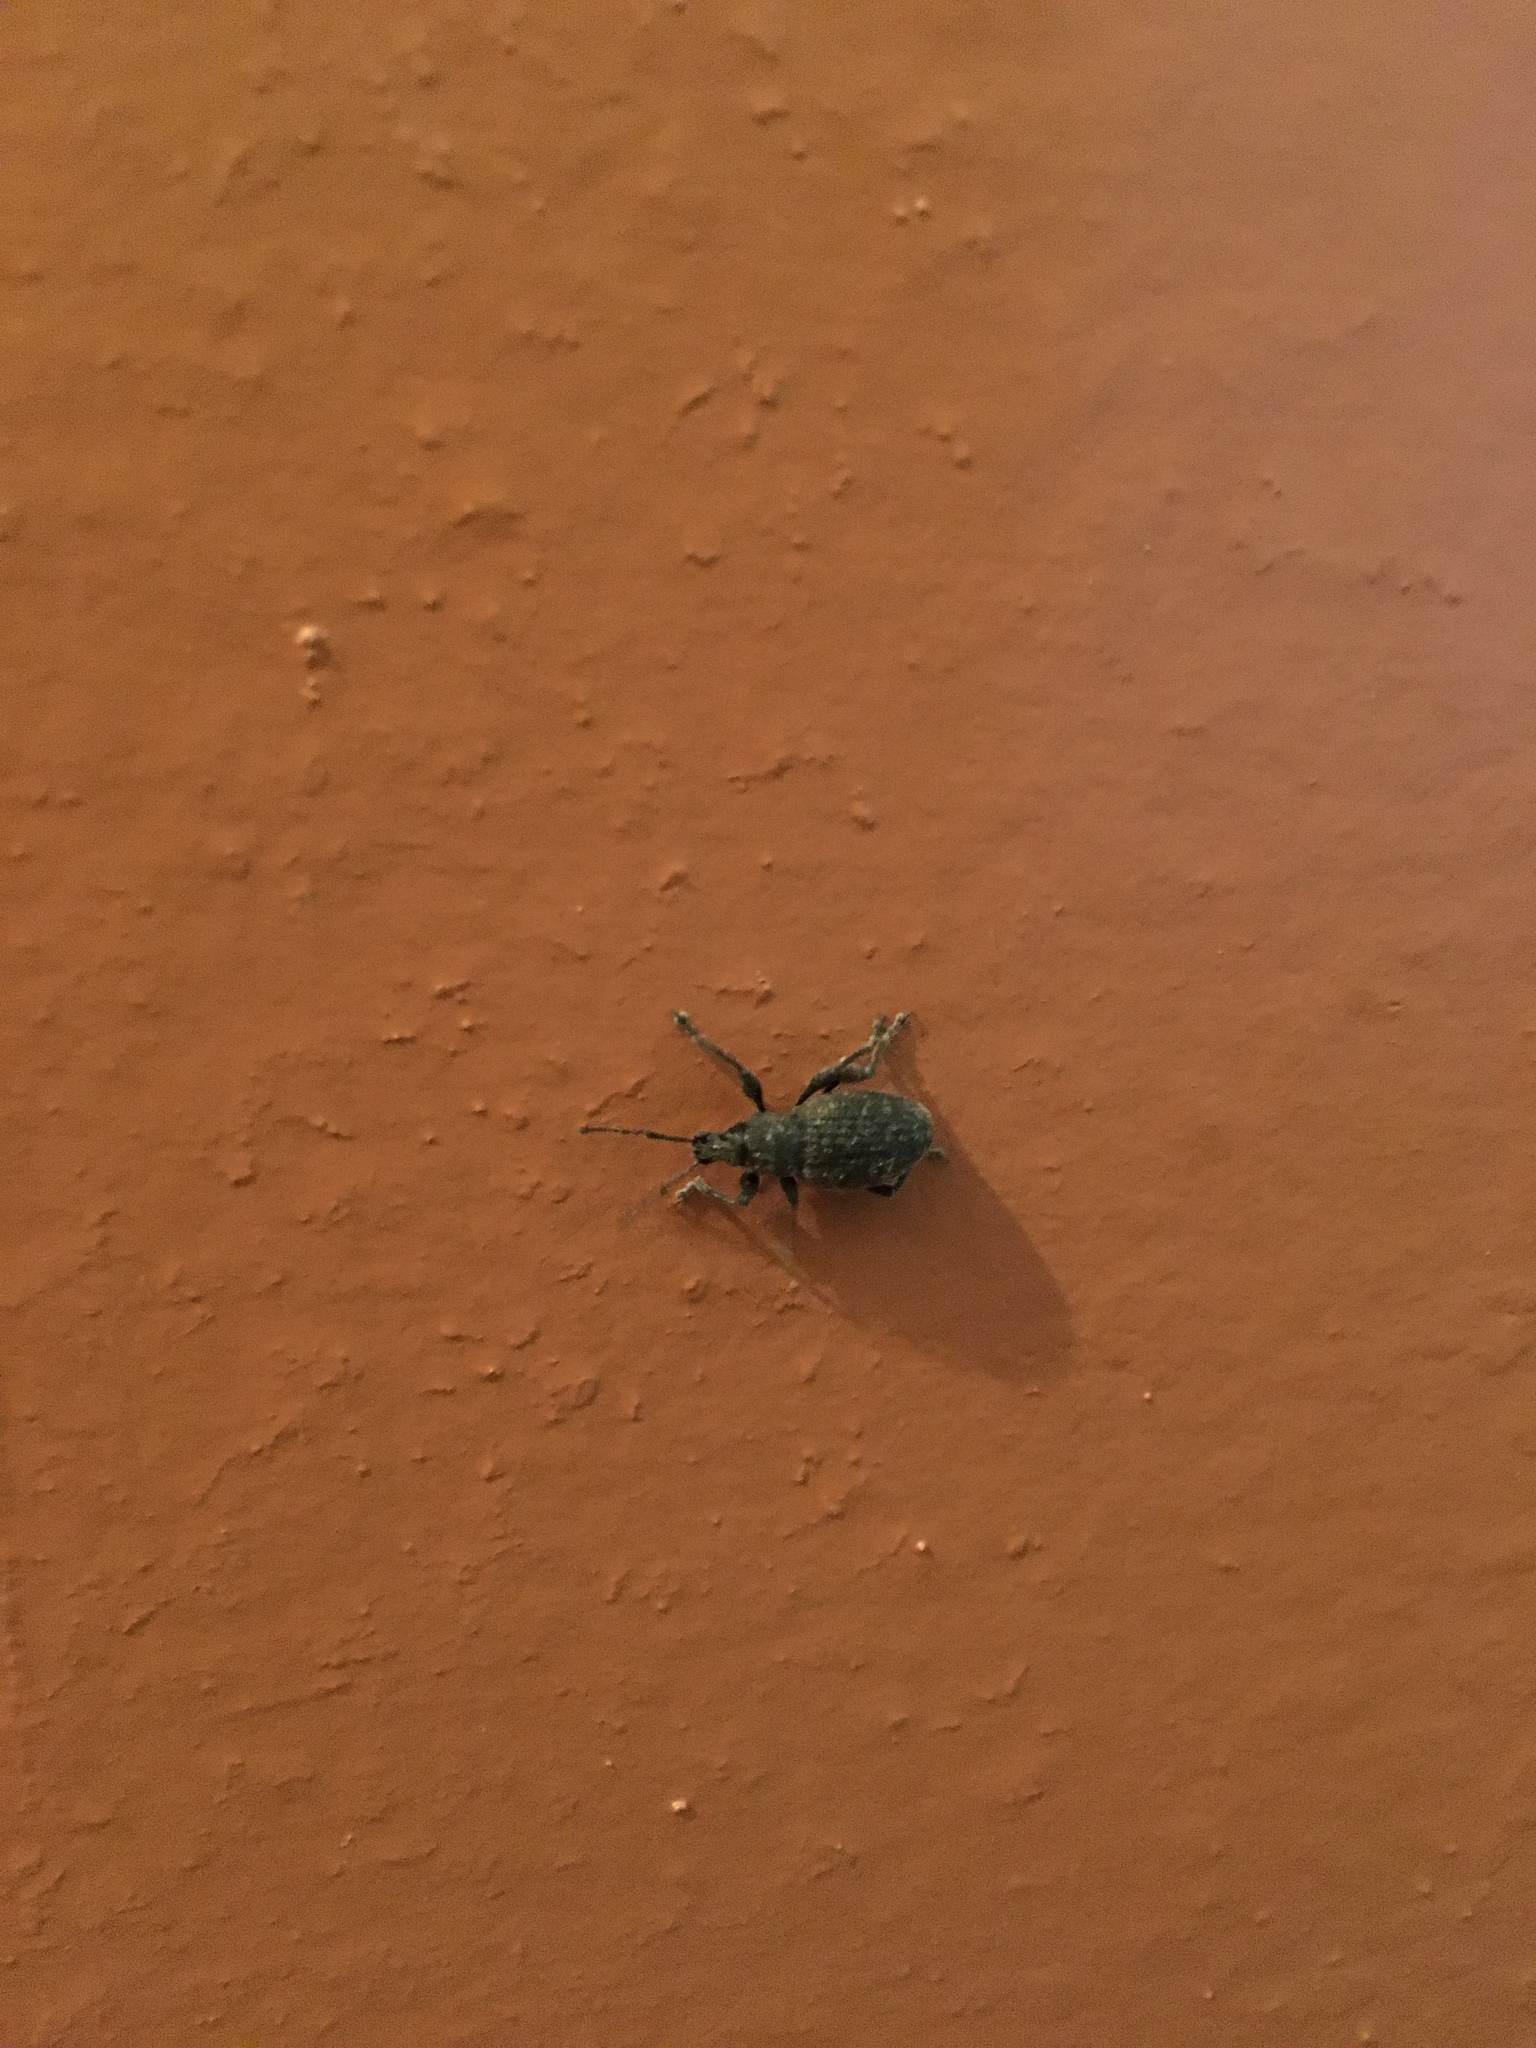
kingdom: Animalia
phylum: Arthropoda
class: Insecta
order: Coleoptera
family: Curculionidae
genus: Otiorhynchus
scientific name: Otiorhynchus sulcatus
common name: Black vine weevil
